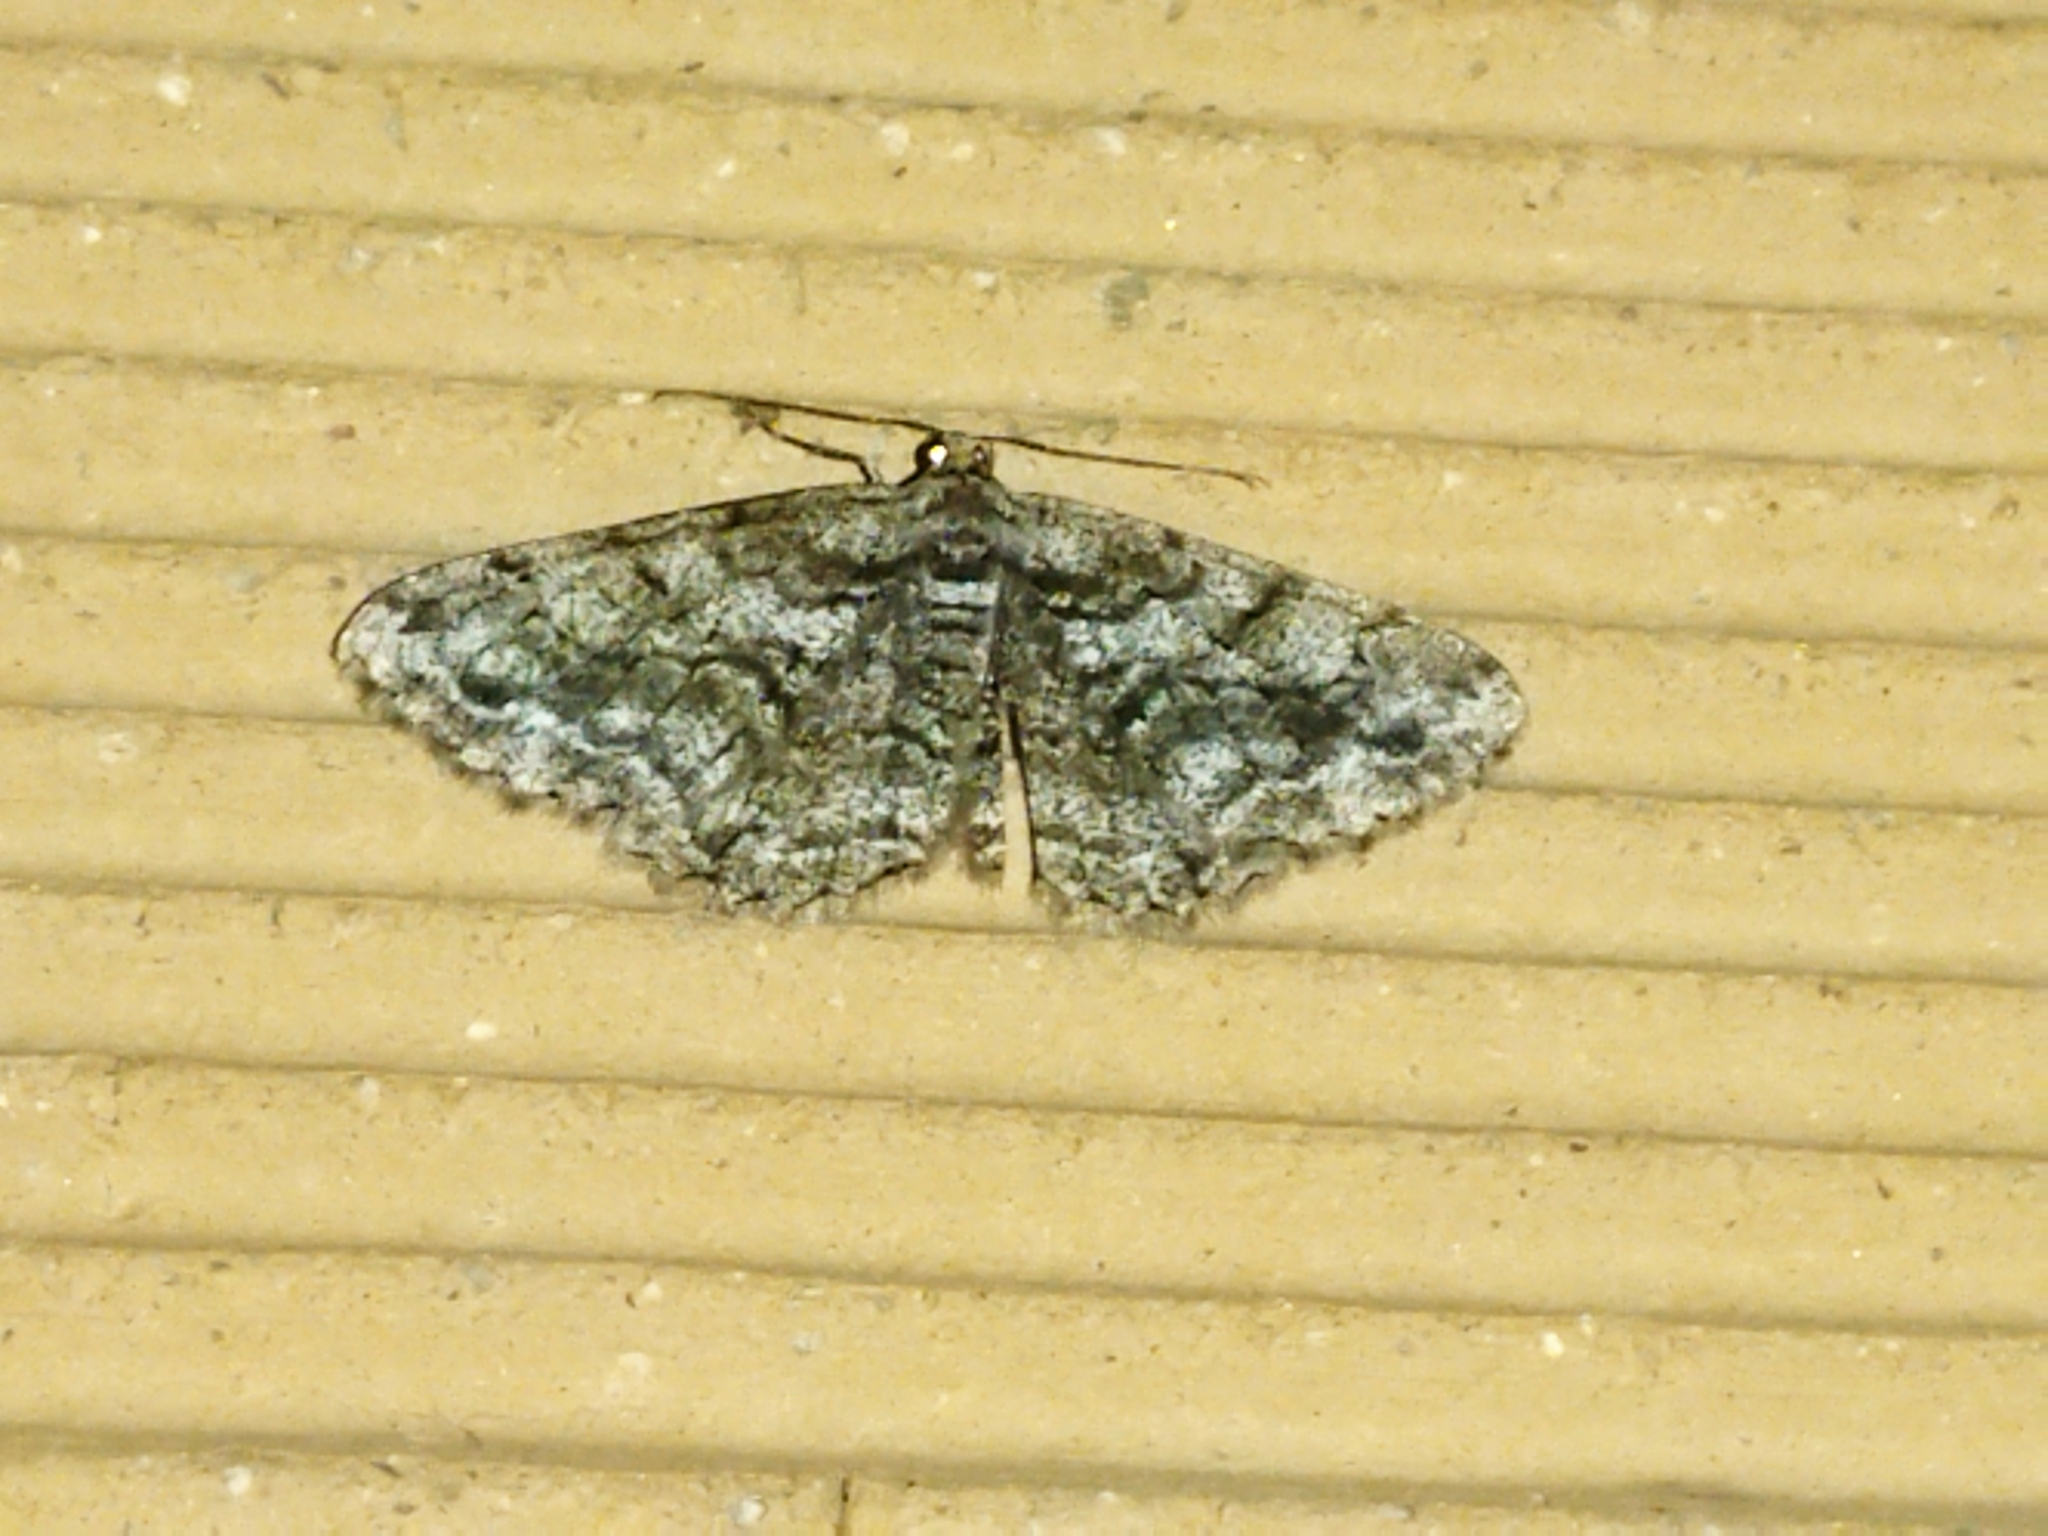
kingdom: Animalia
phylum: Arthropoda
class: Insecta
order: Lepidoptera
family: Geometridae
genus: Peribatodes
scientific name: Peribatodes secundaria
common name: Feathered beauty
